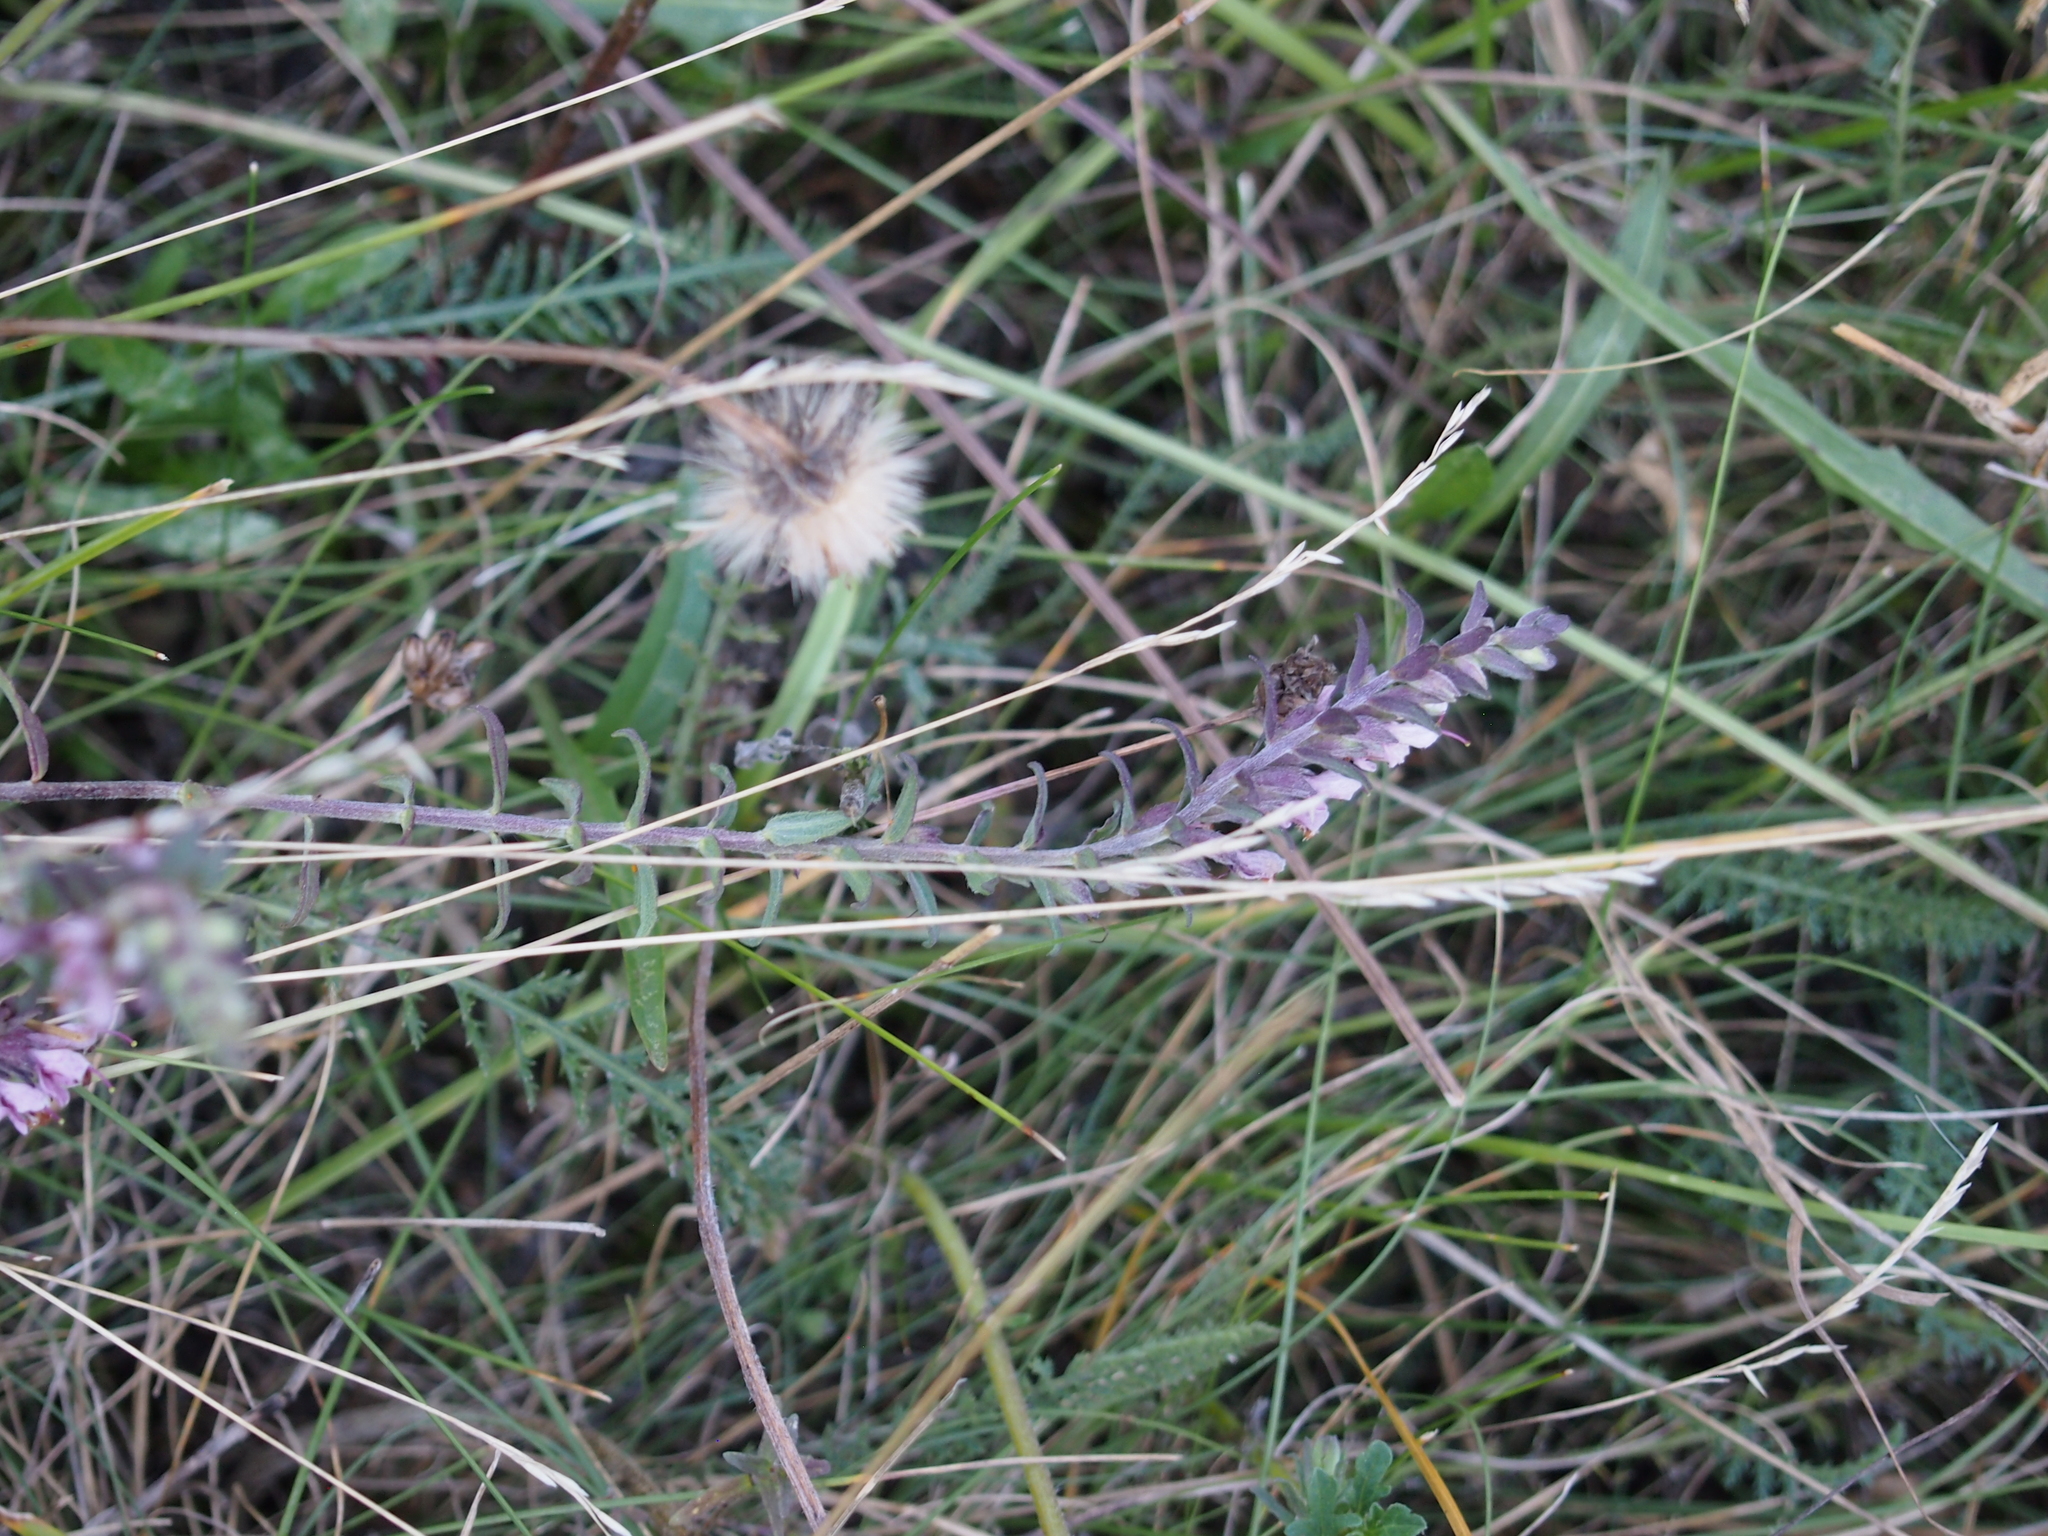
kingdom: Plantae
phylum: Tracheophyta
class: Magnoliopsida
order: Lamiales
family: Orobanchaceae
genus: Odontites
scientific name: Odontites vernus
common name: Red bartsia
